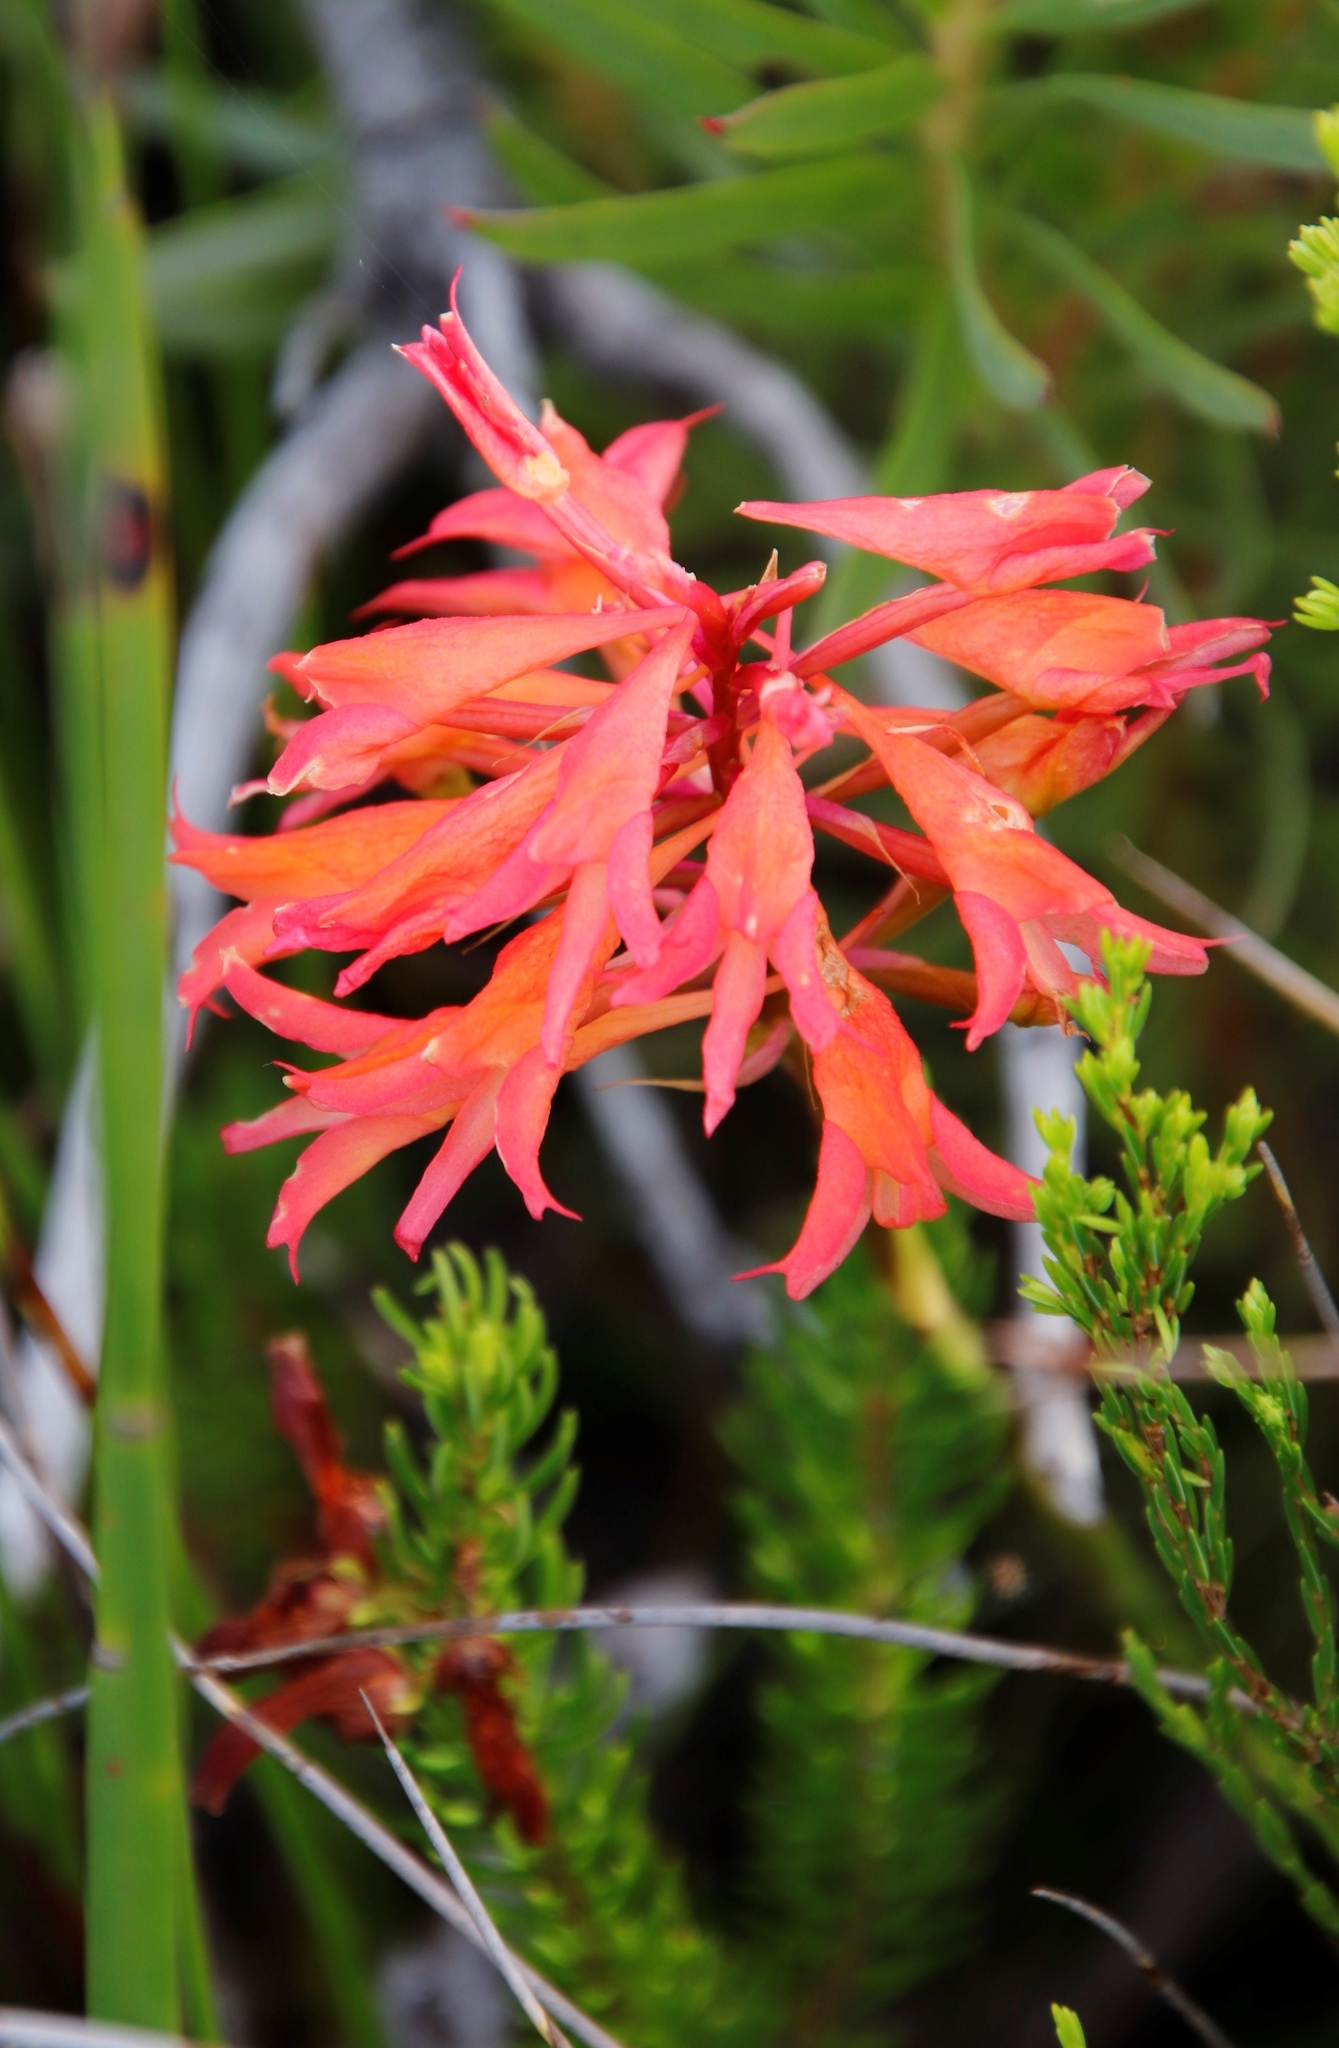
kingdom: Plantae
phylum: Tracheophyta
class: Liliopsida
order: Asparagales
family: Orchidaceae
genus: Disa
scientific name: Disa ferruginea
